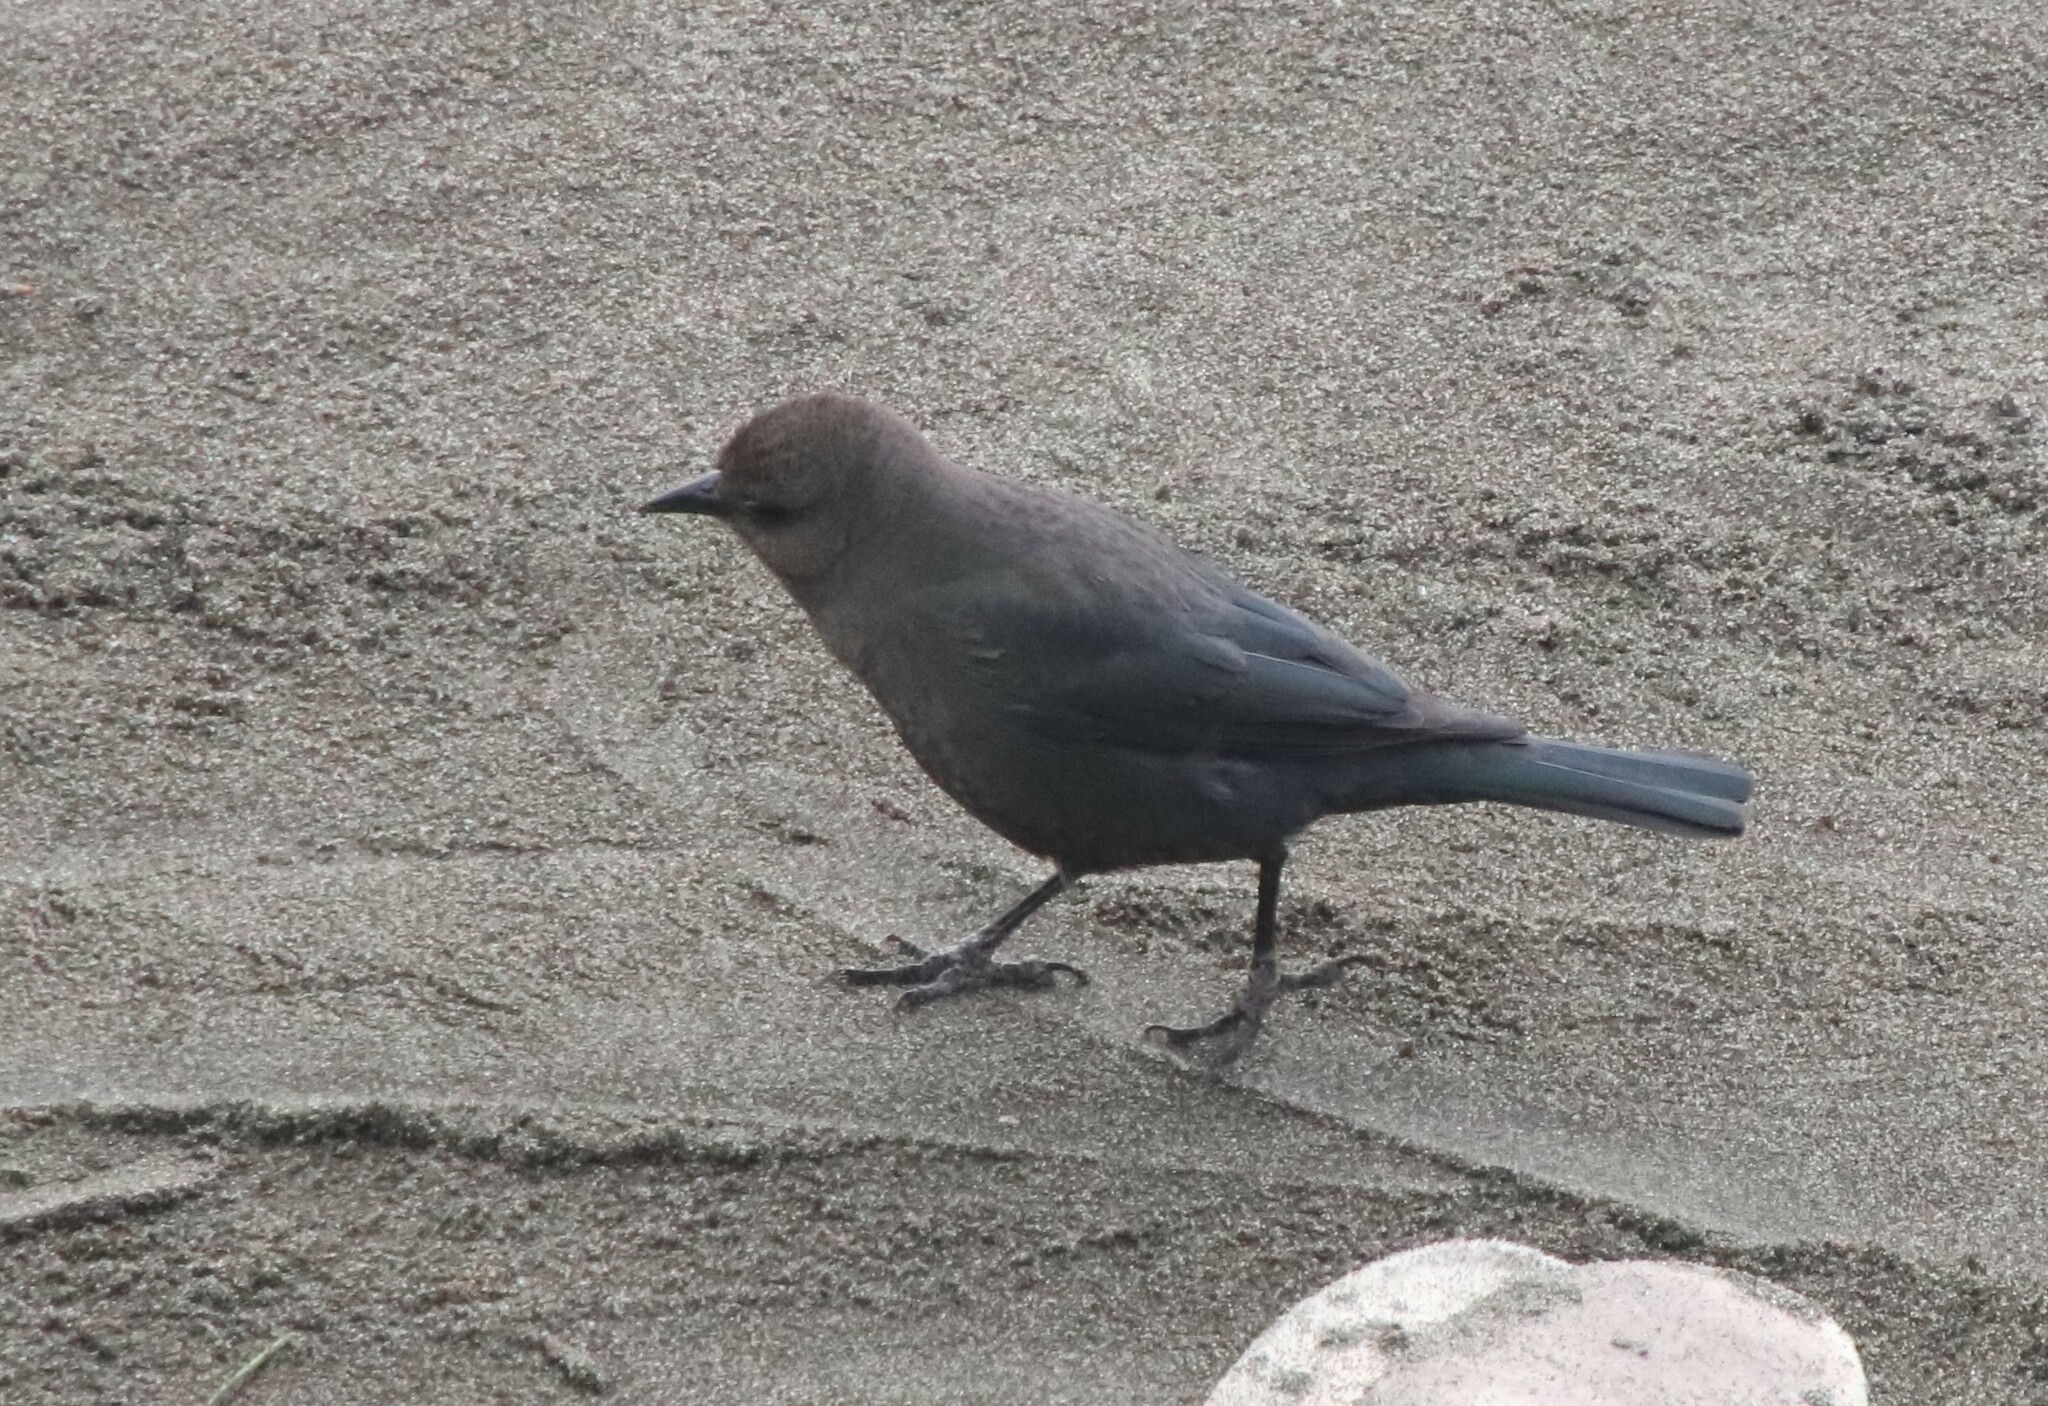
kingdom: Animalia
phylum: Chordata
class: Aves
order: Passeriformes
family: Icteridae
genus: Euphagus
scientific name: Euphagus cyanocephalus
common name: Brewer's blackbird
